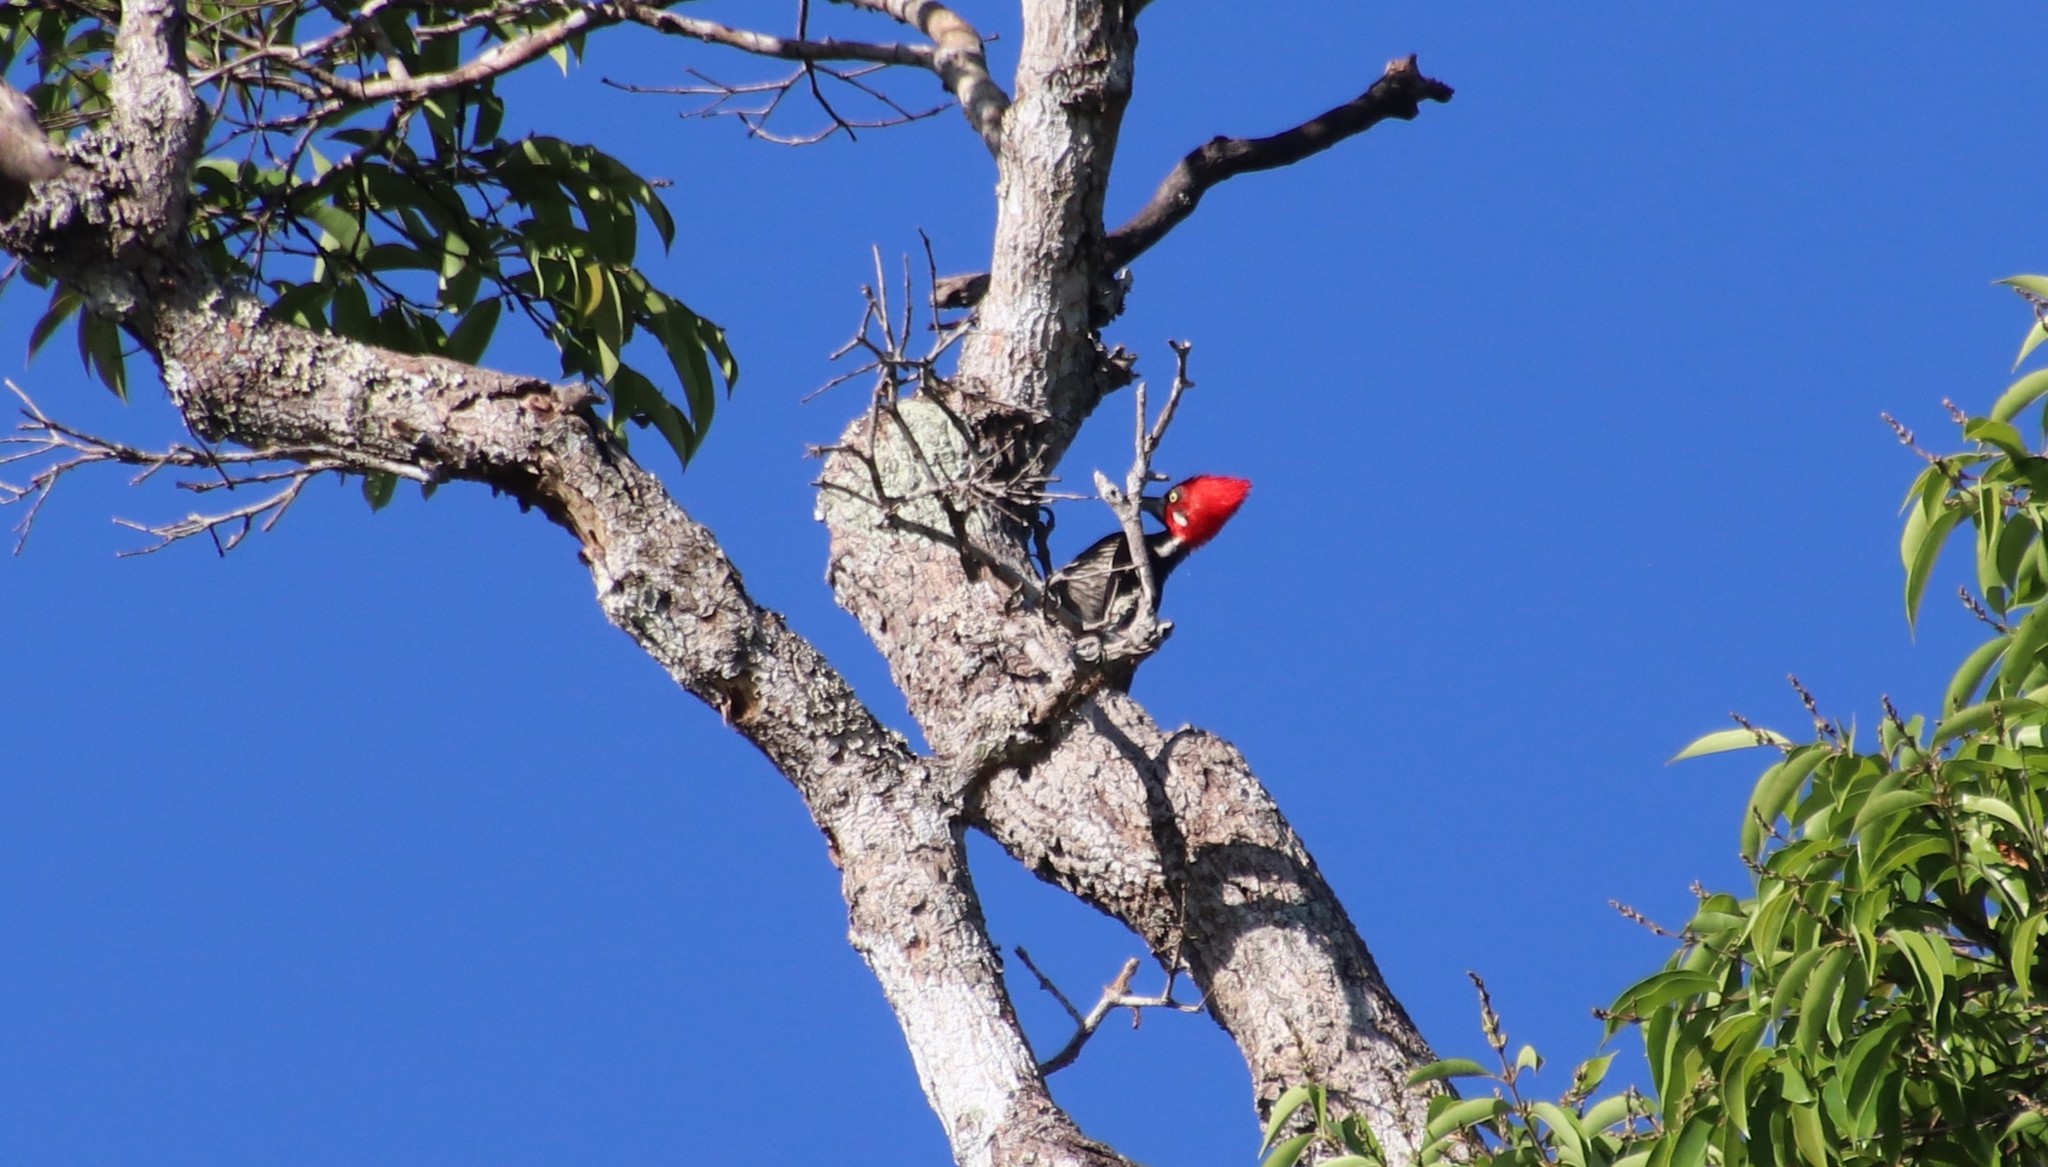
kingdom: Animalia
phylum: Chordata
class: Aves
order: Piciformes
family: Picidae
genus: Campephilus
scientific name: Campephilus melanoleucos
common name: Crimson-crested woodpecker
